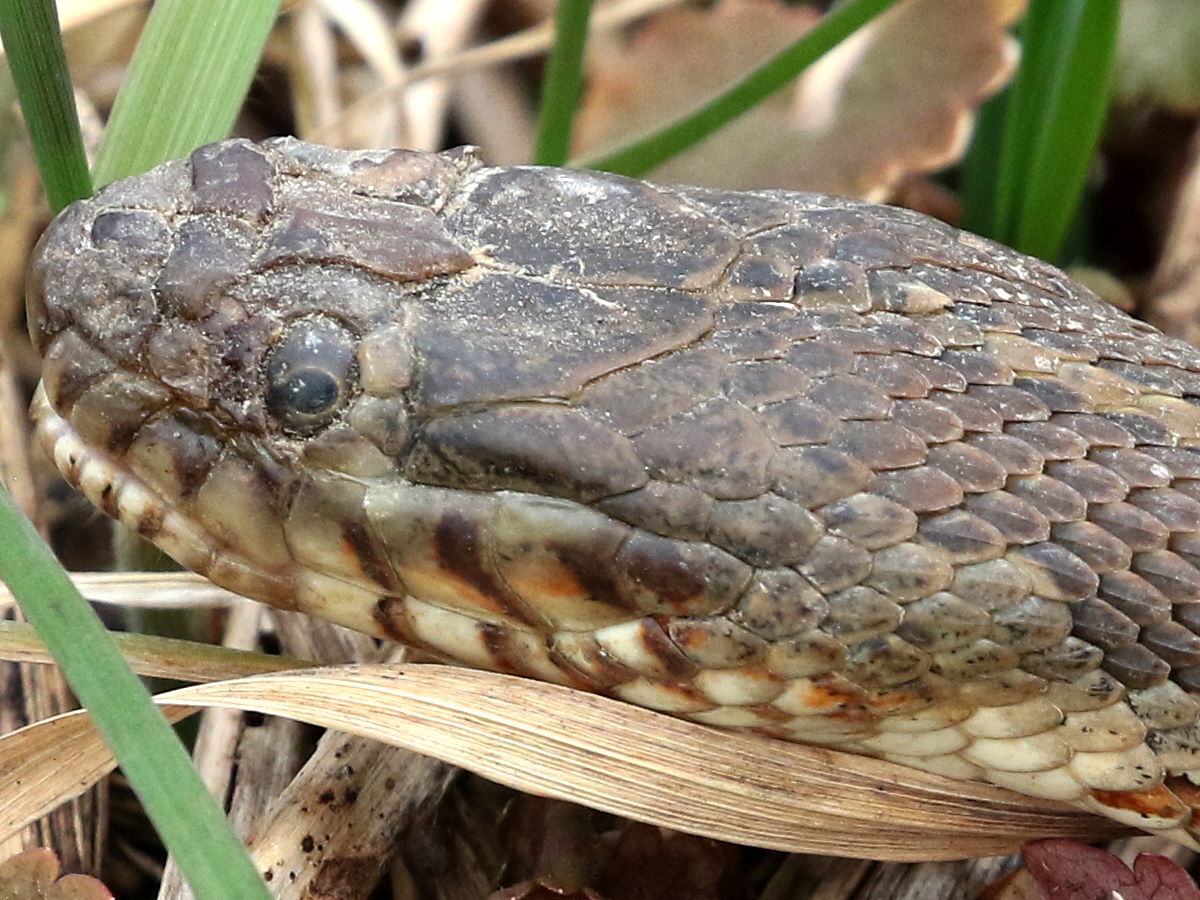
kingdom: Animalia
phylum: Chordata
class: Squamata
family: Colubridae
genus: Nerodia
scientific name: Nerodia sipedon
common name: Northern water snake
